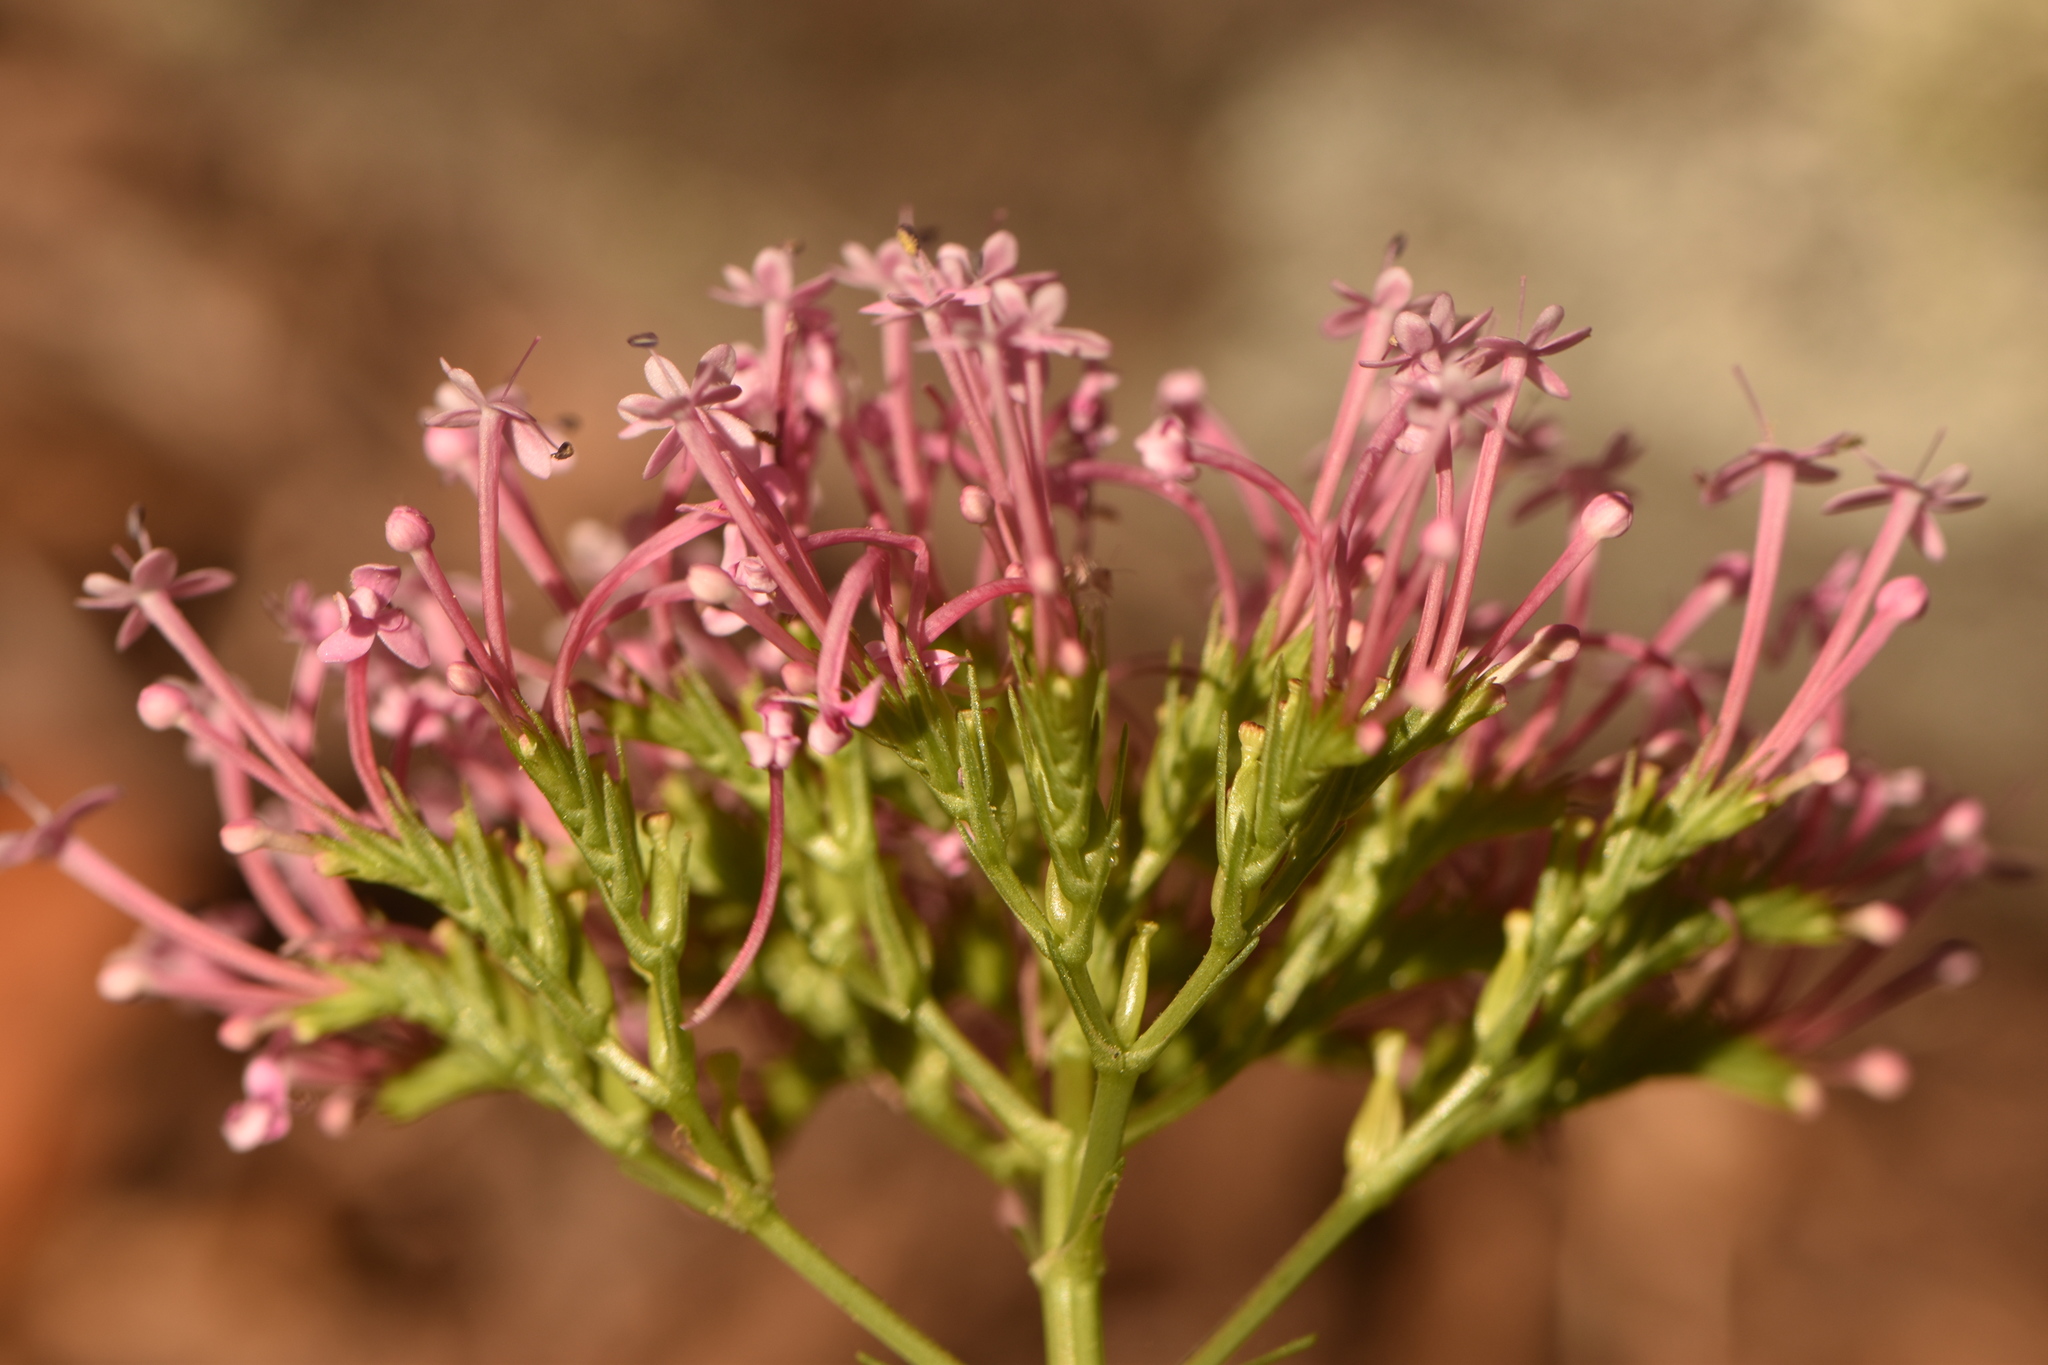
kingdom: Plantae
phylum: Tracheophyta
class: Magnoliopsida
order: Dipsacales
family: Caprifoliaceae
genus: Centranthus
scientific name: Centranthus macrosiphon
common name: Spanish-valerian
